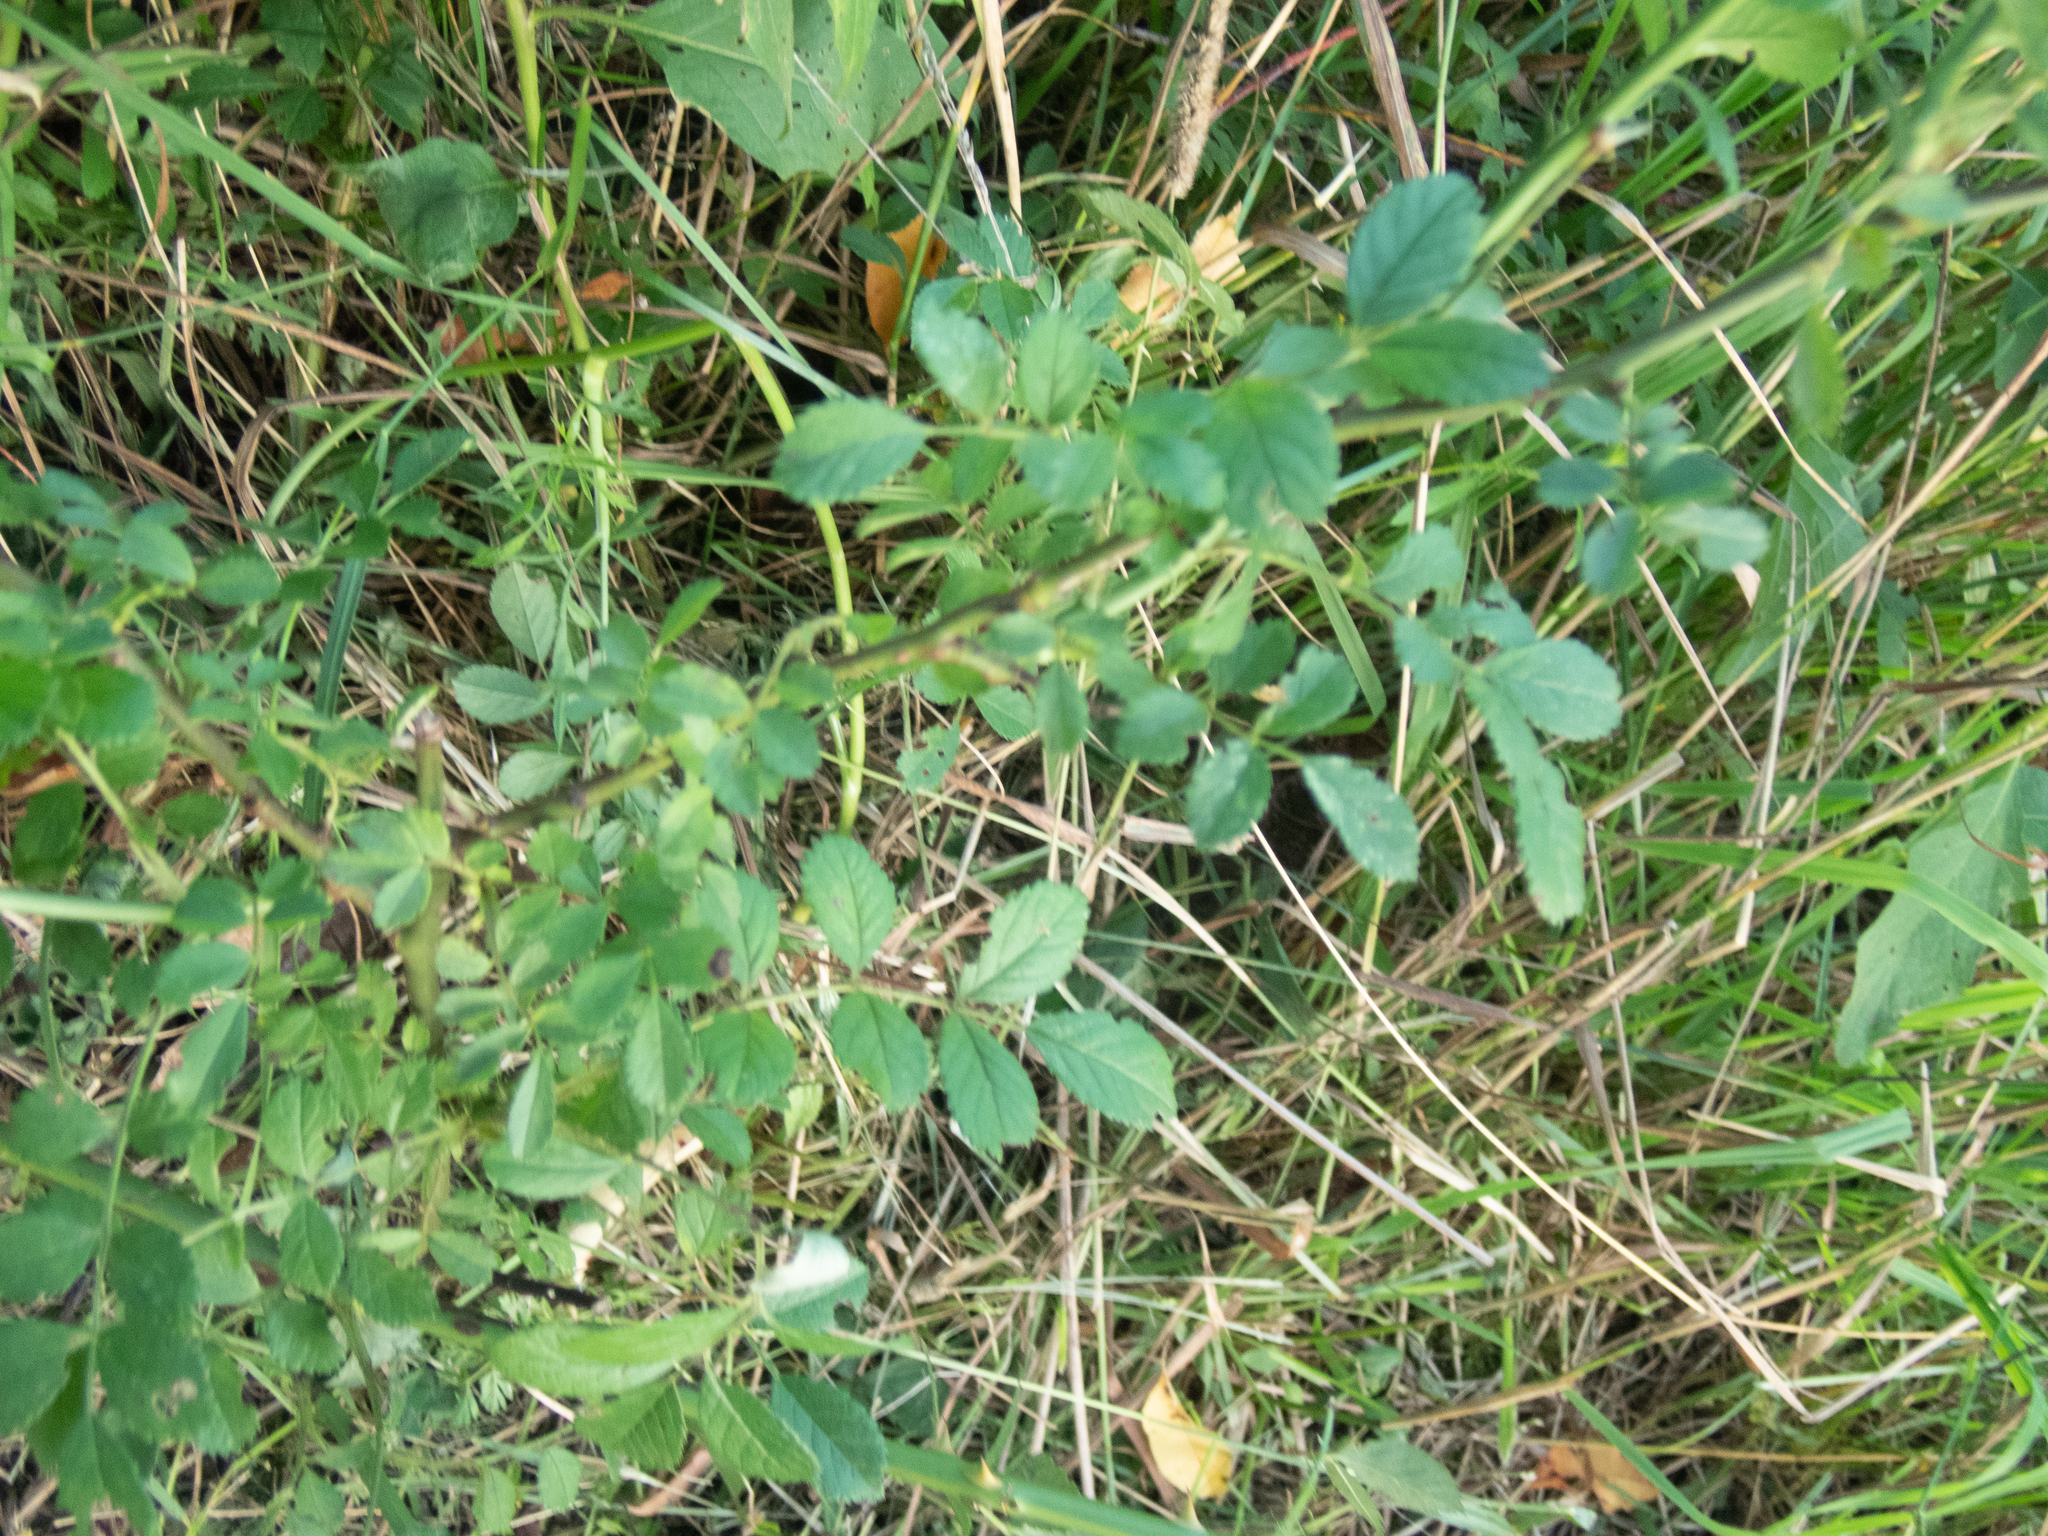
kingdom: Plantae
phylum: Tracheophyta
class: Magnoliopsida
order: Rosales
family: Rosaceae
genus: Rosa
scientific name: Rosa multiflora
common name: Multiflora rose
